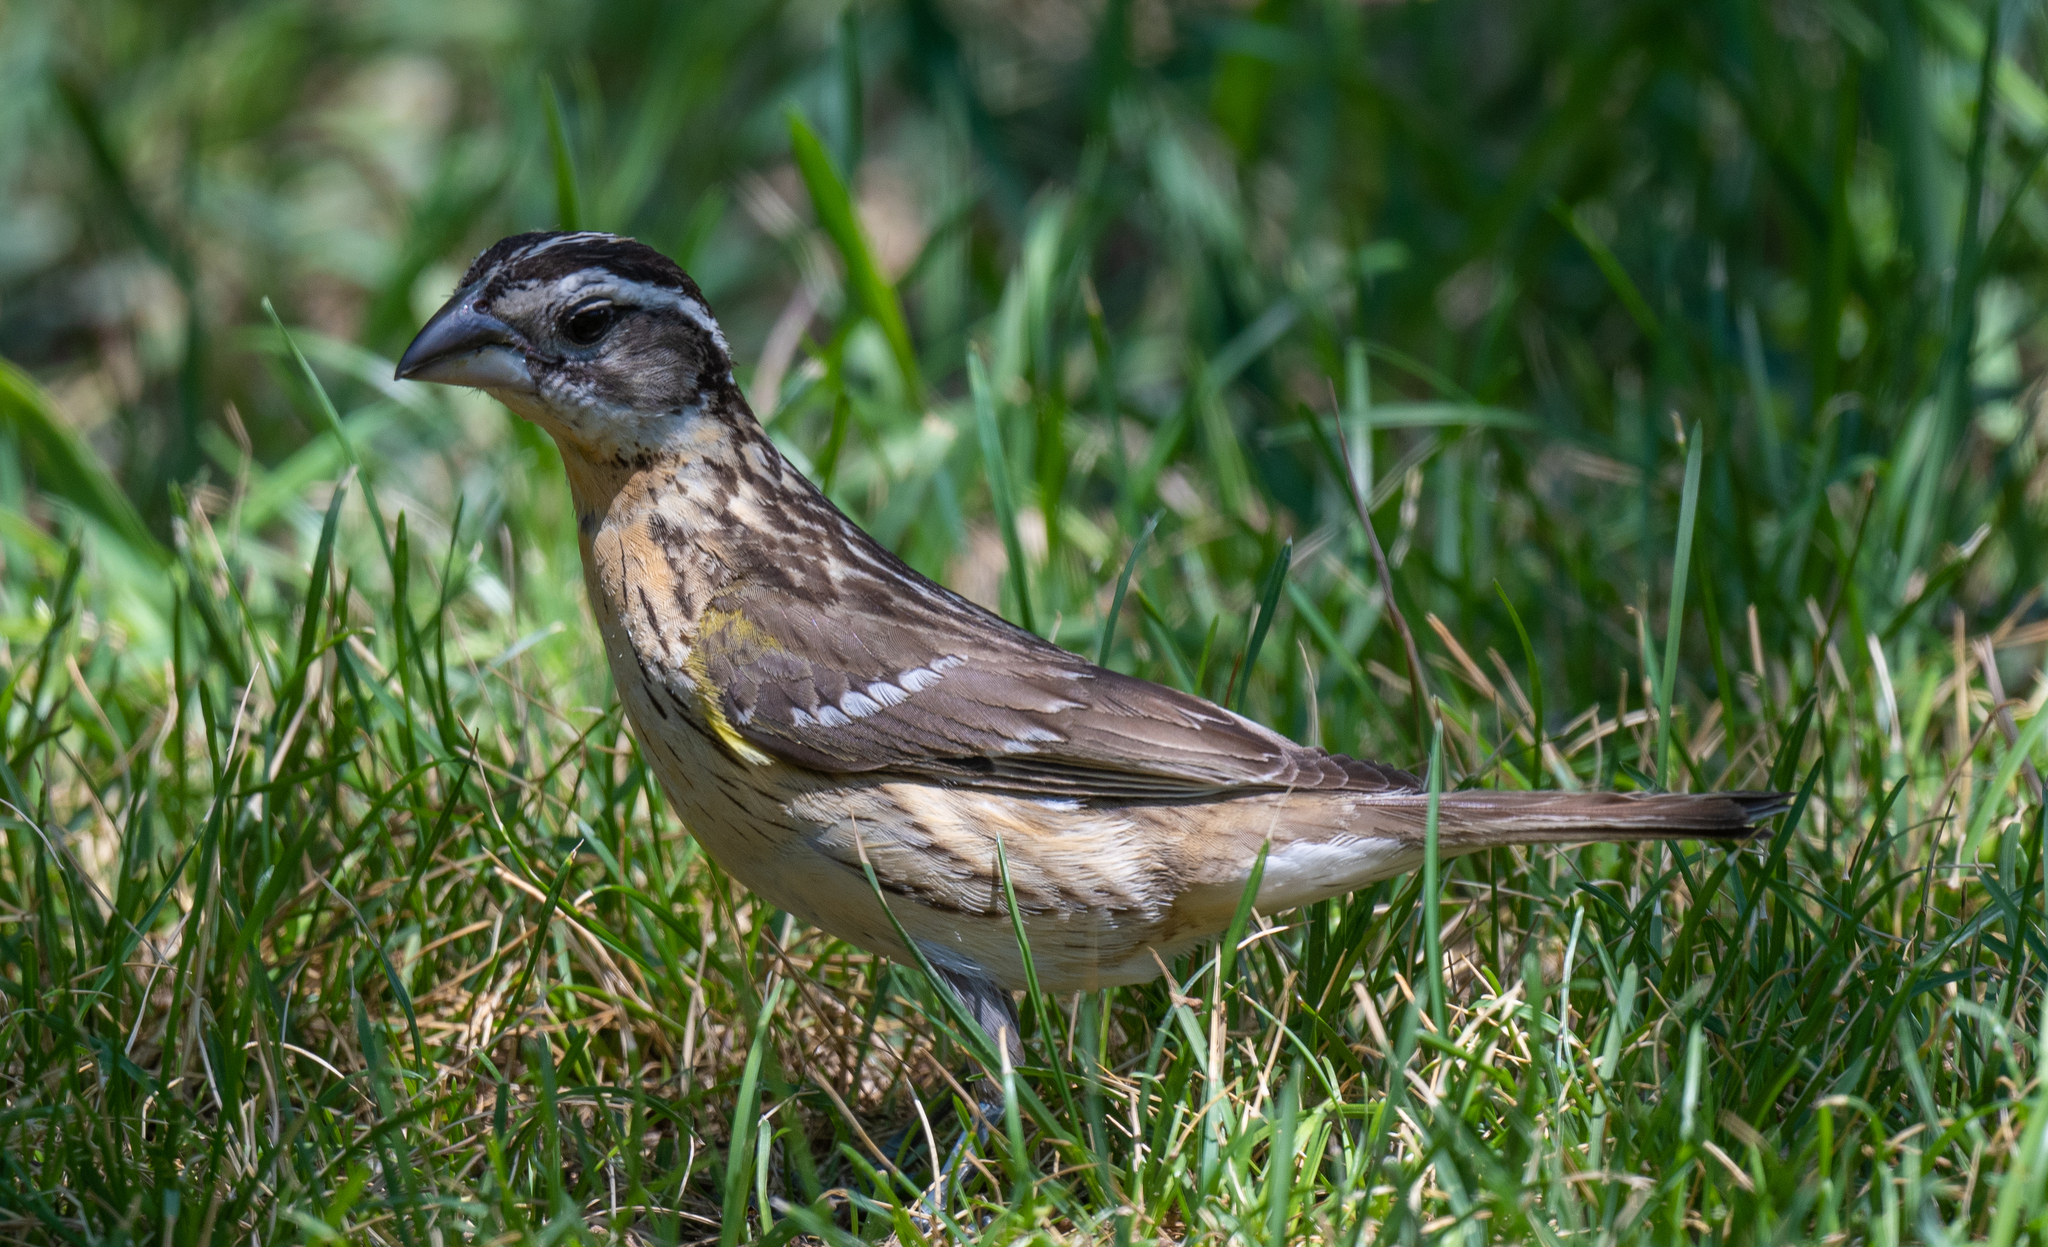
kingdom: Animalia
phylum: Chordata
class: Aves
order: Passeriformes
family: Cardinalidae
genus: Pheucticus
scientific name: Pheucticus melanocephalus
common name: Black-headed grosbeak
